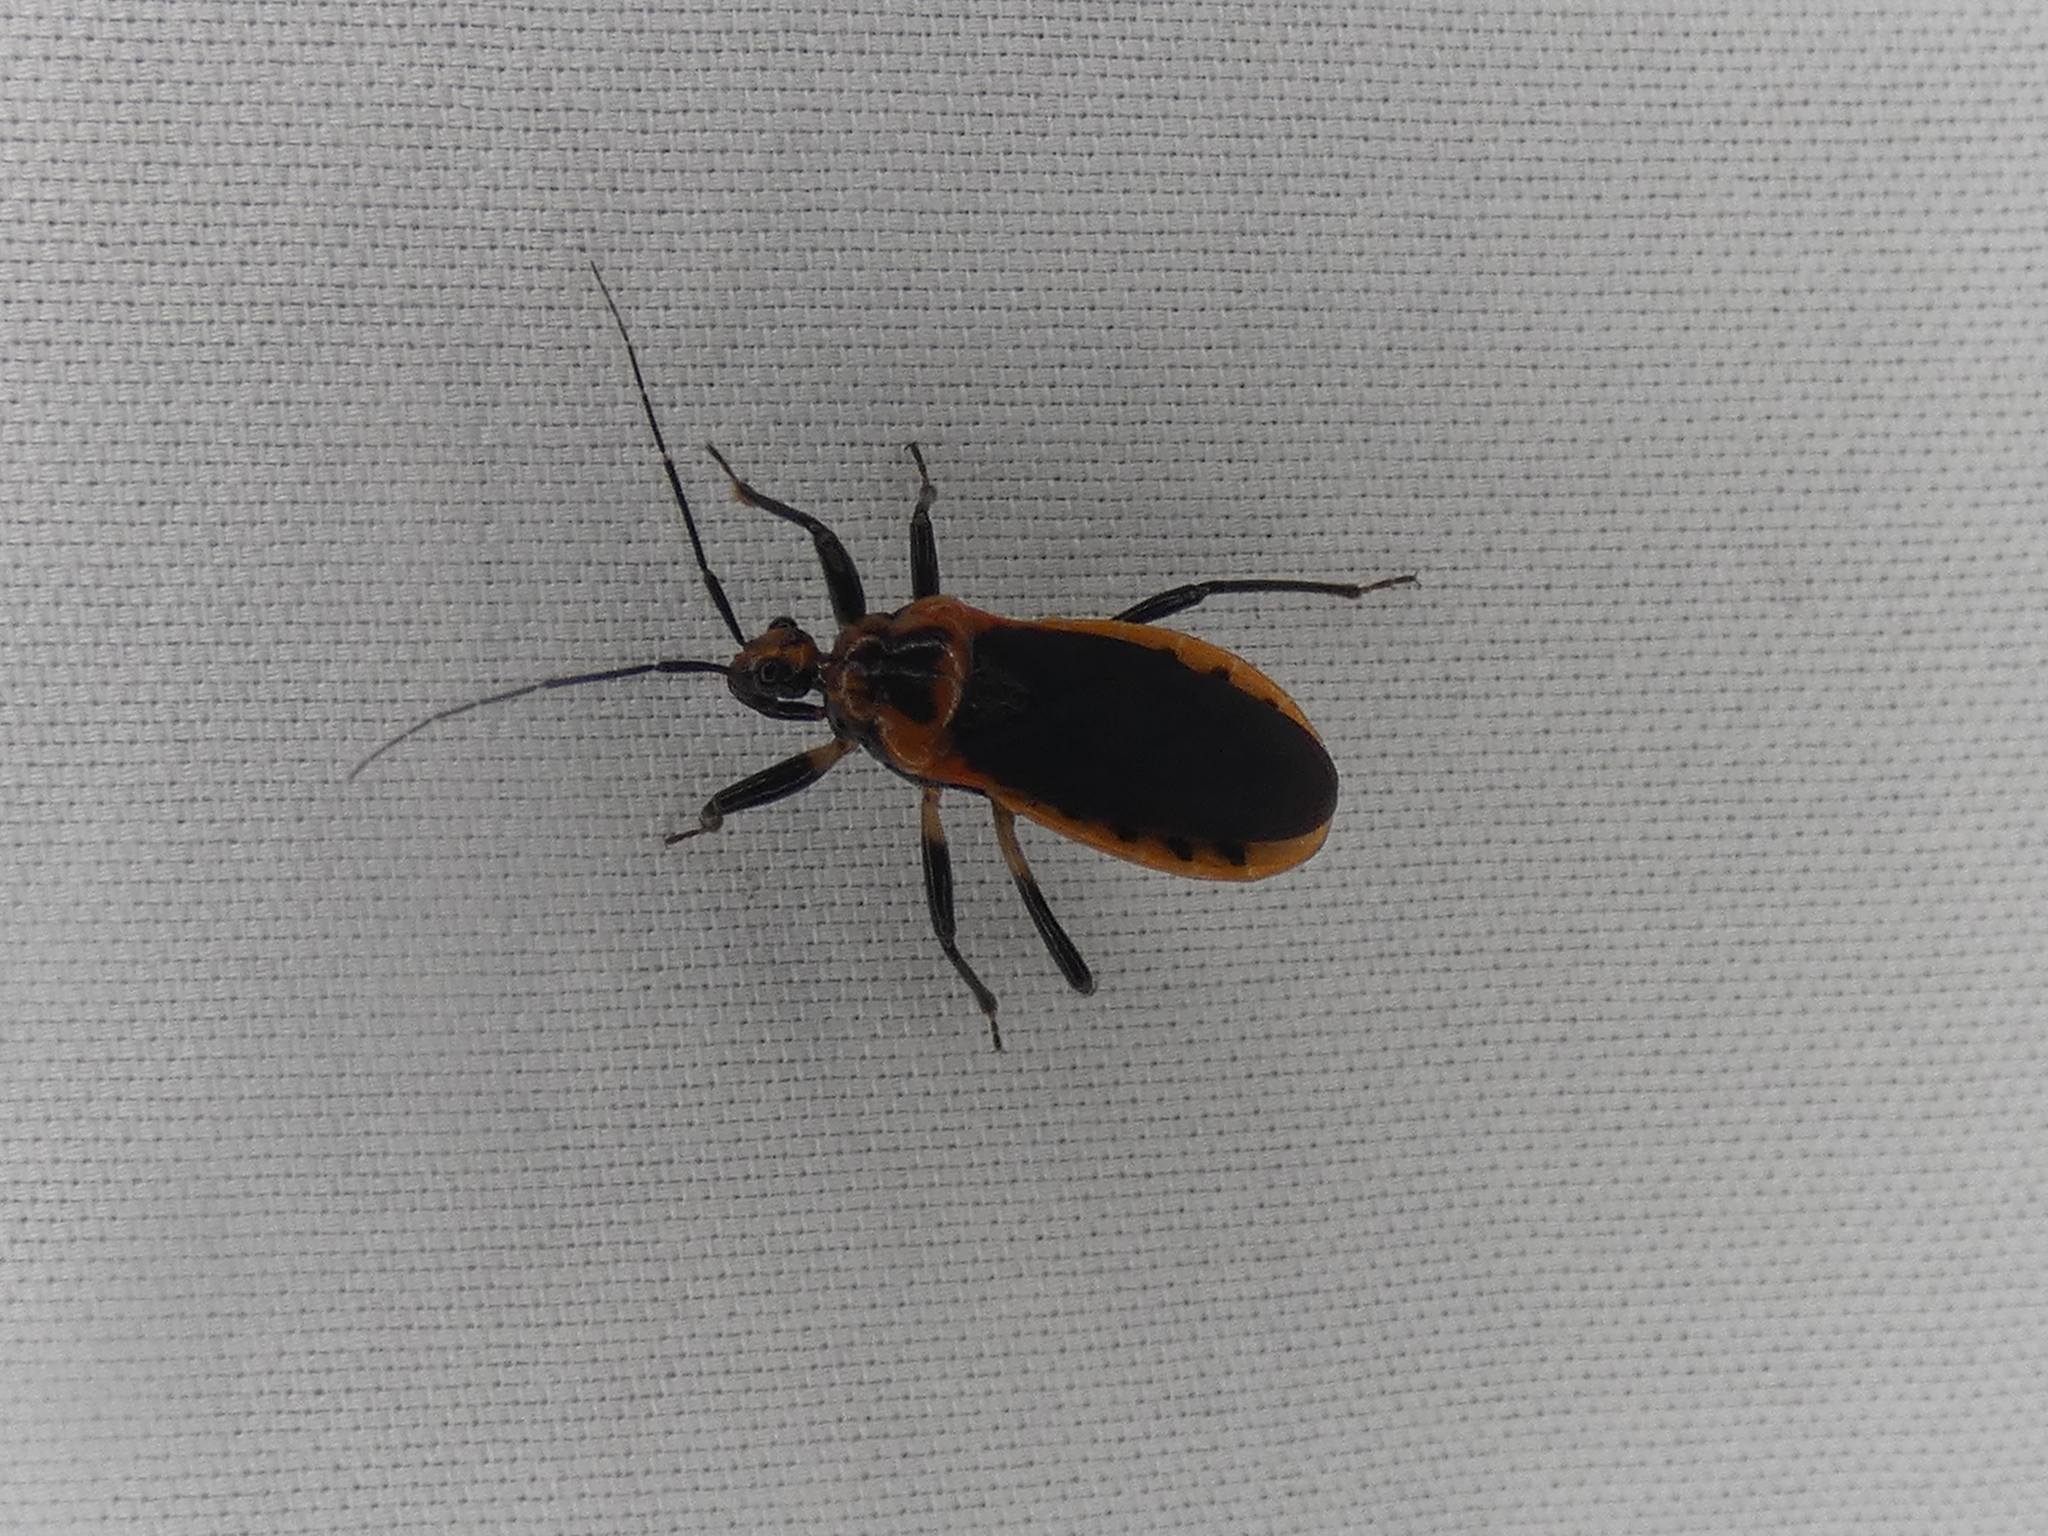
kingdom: Animalia
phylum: Arthropoda
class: Insecta
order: Hemiptera
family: Reduviidae
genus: Rhiginia
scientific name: Rhiginia cruciata
